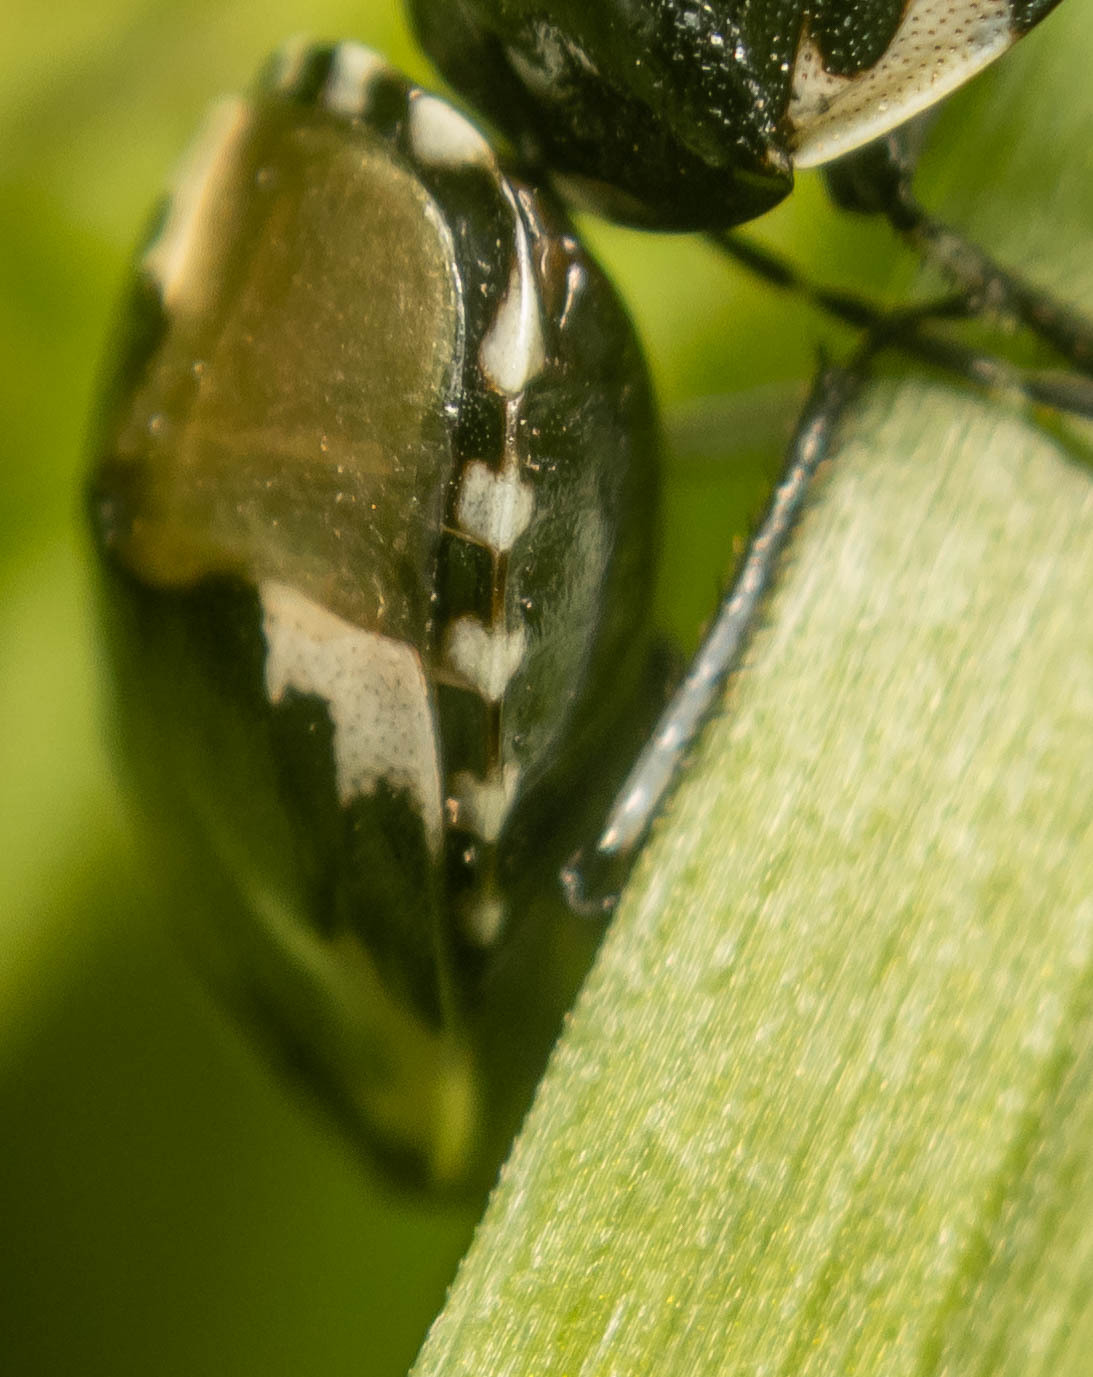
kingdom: Animalia
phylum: Arthropoda
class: Insecta
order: Hemiptera
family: Cydnidae
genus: Tritomegas
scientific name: Tritomegas bicolor
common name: Pied shieldbug
